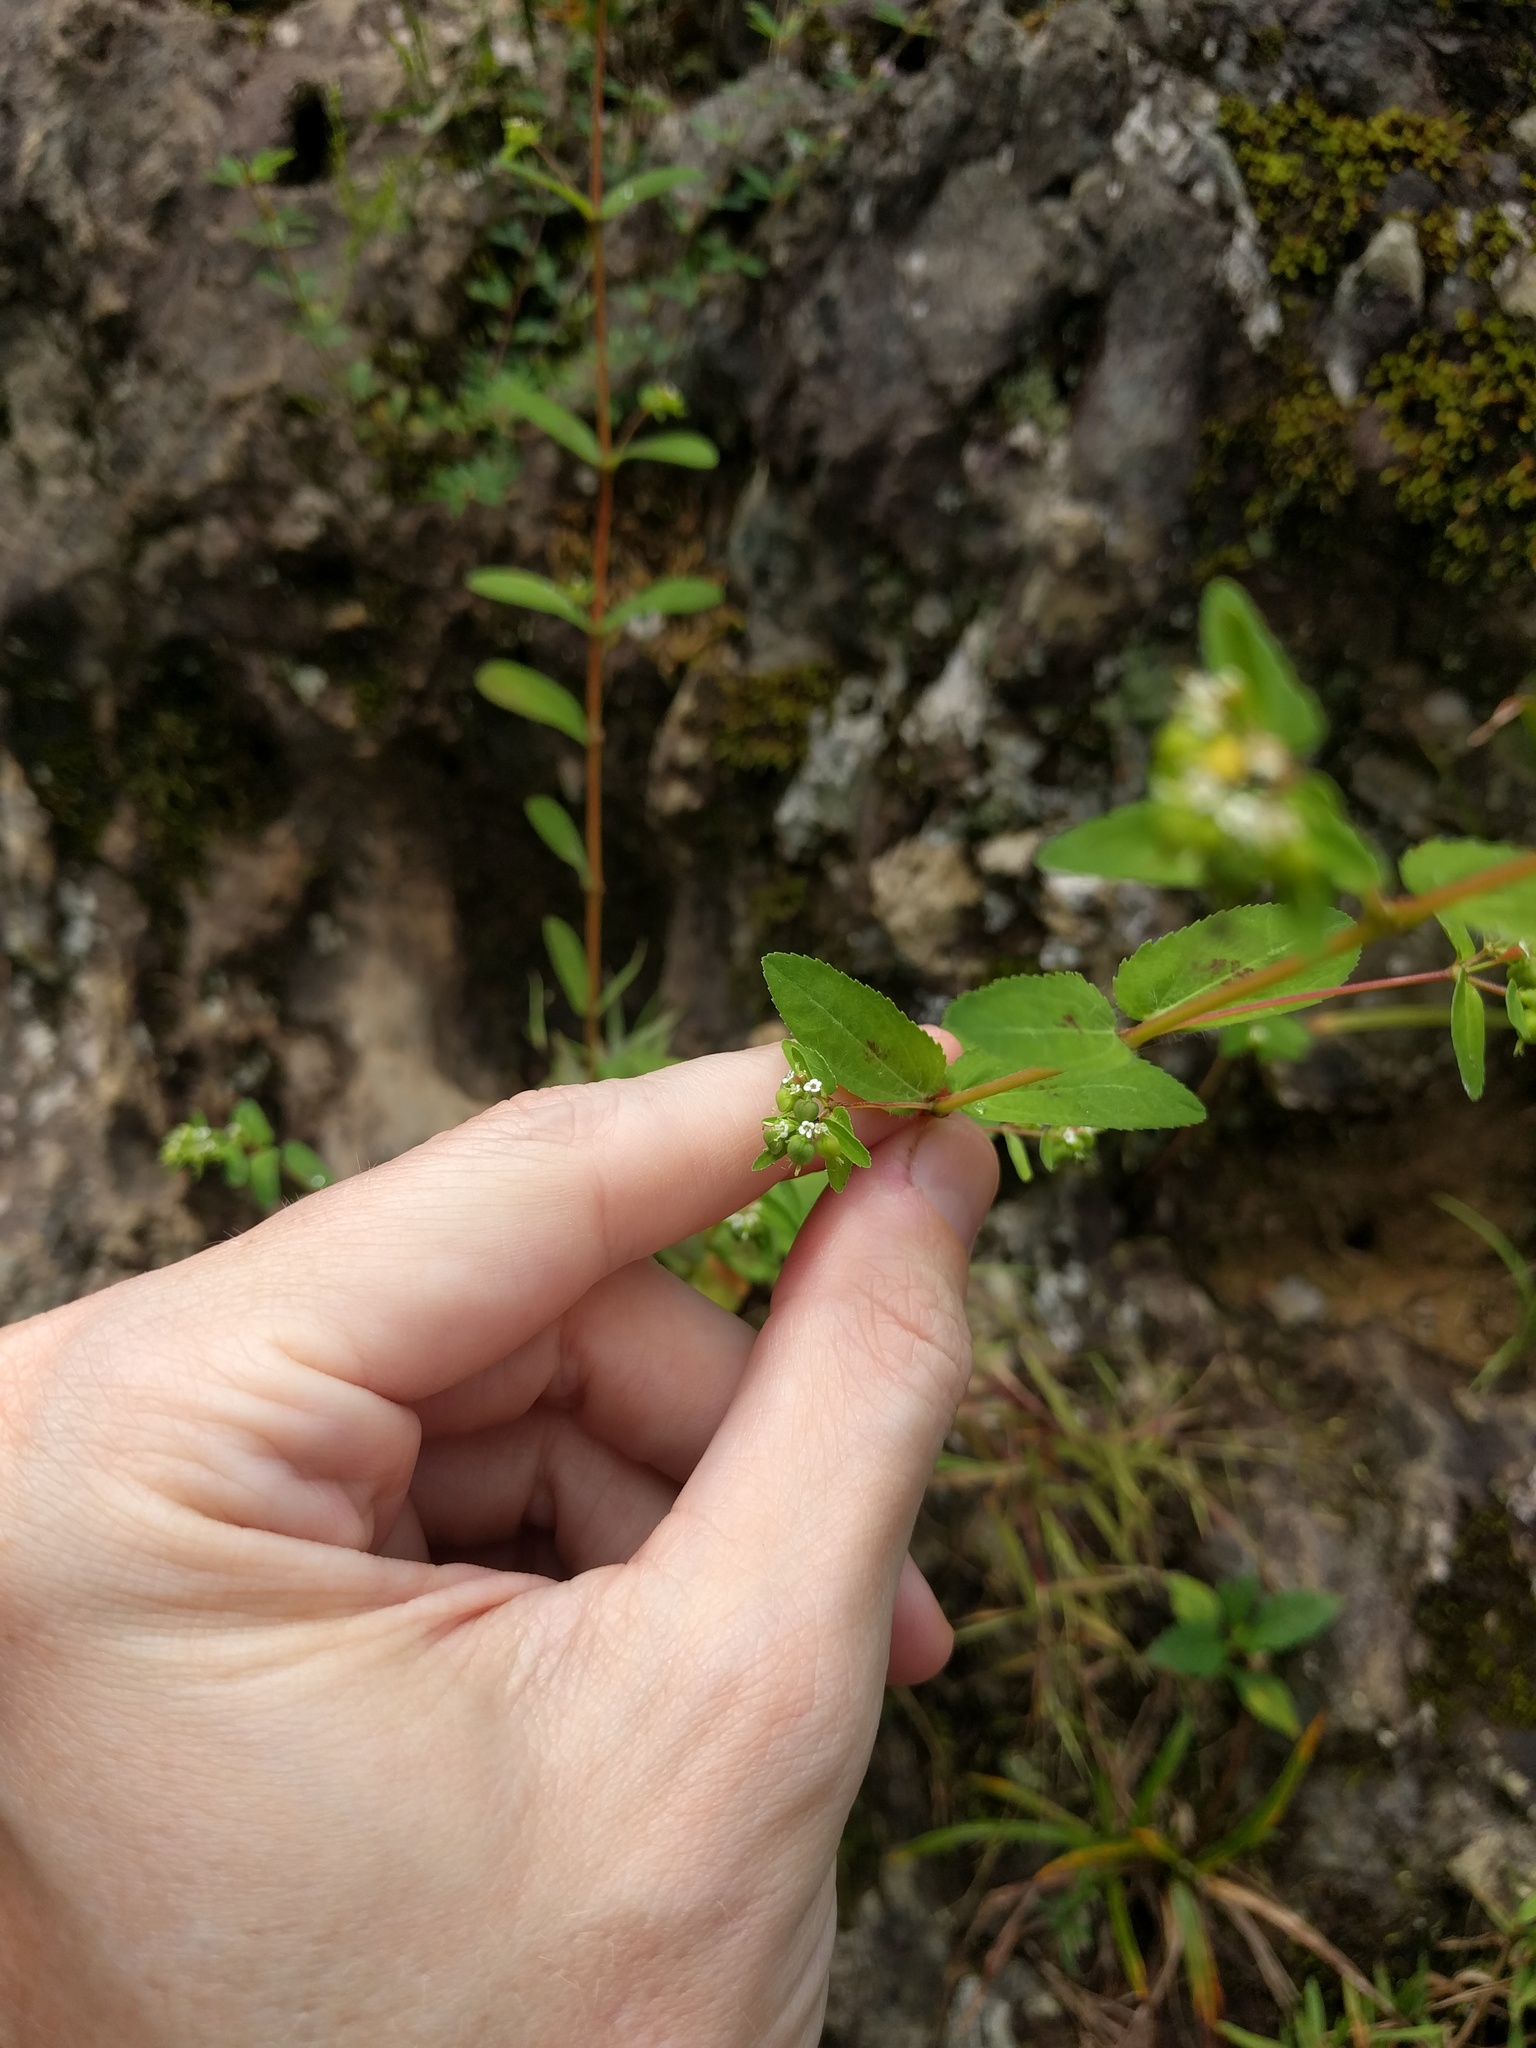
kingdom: Plantae
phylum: Tracheophyta
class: Magnoliopsida
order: Malpighiales
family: Euphorbiaceae
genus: Euphorbia
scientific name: Euphorbia nutans
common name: Eyebane
